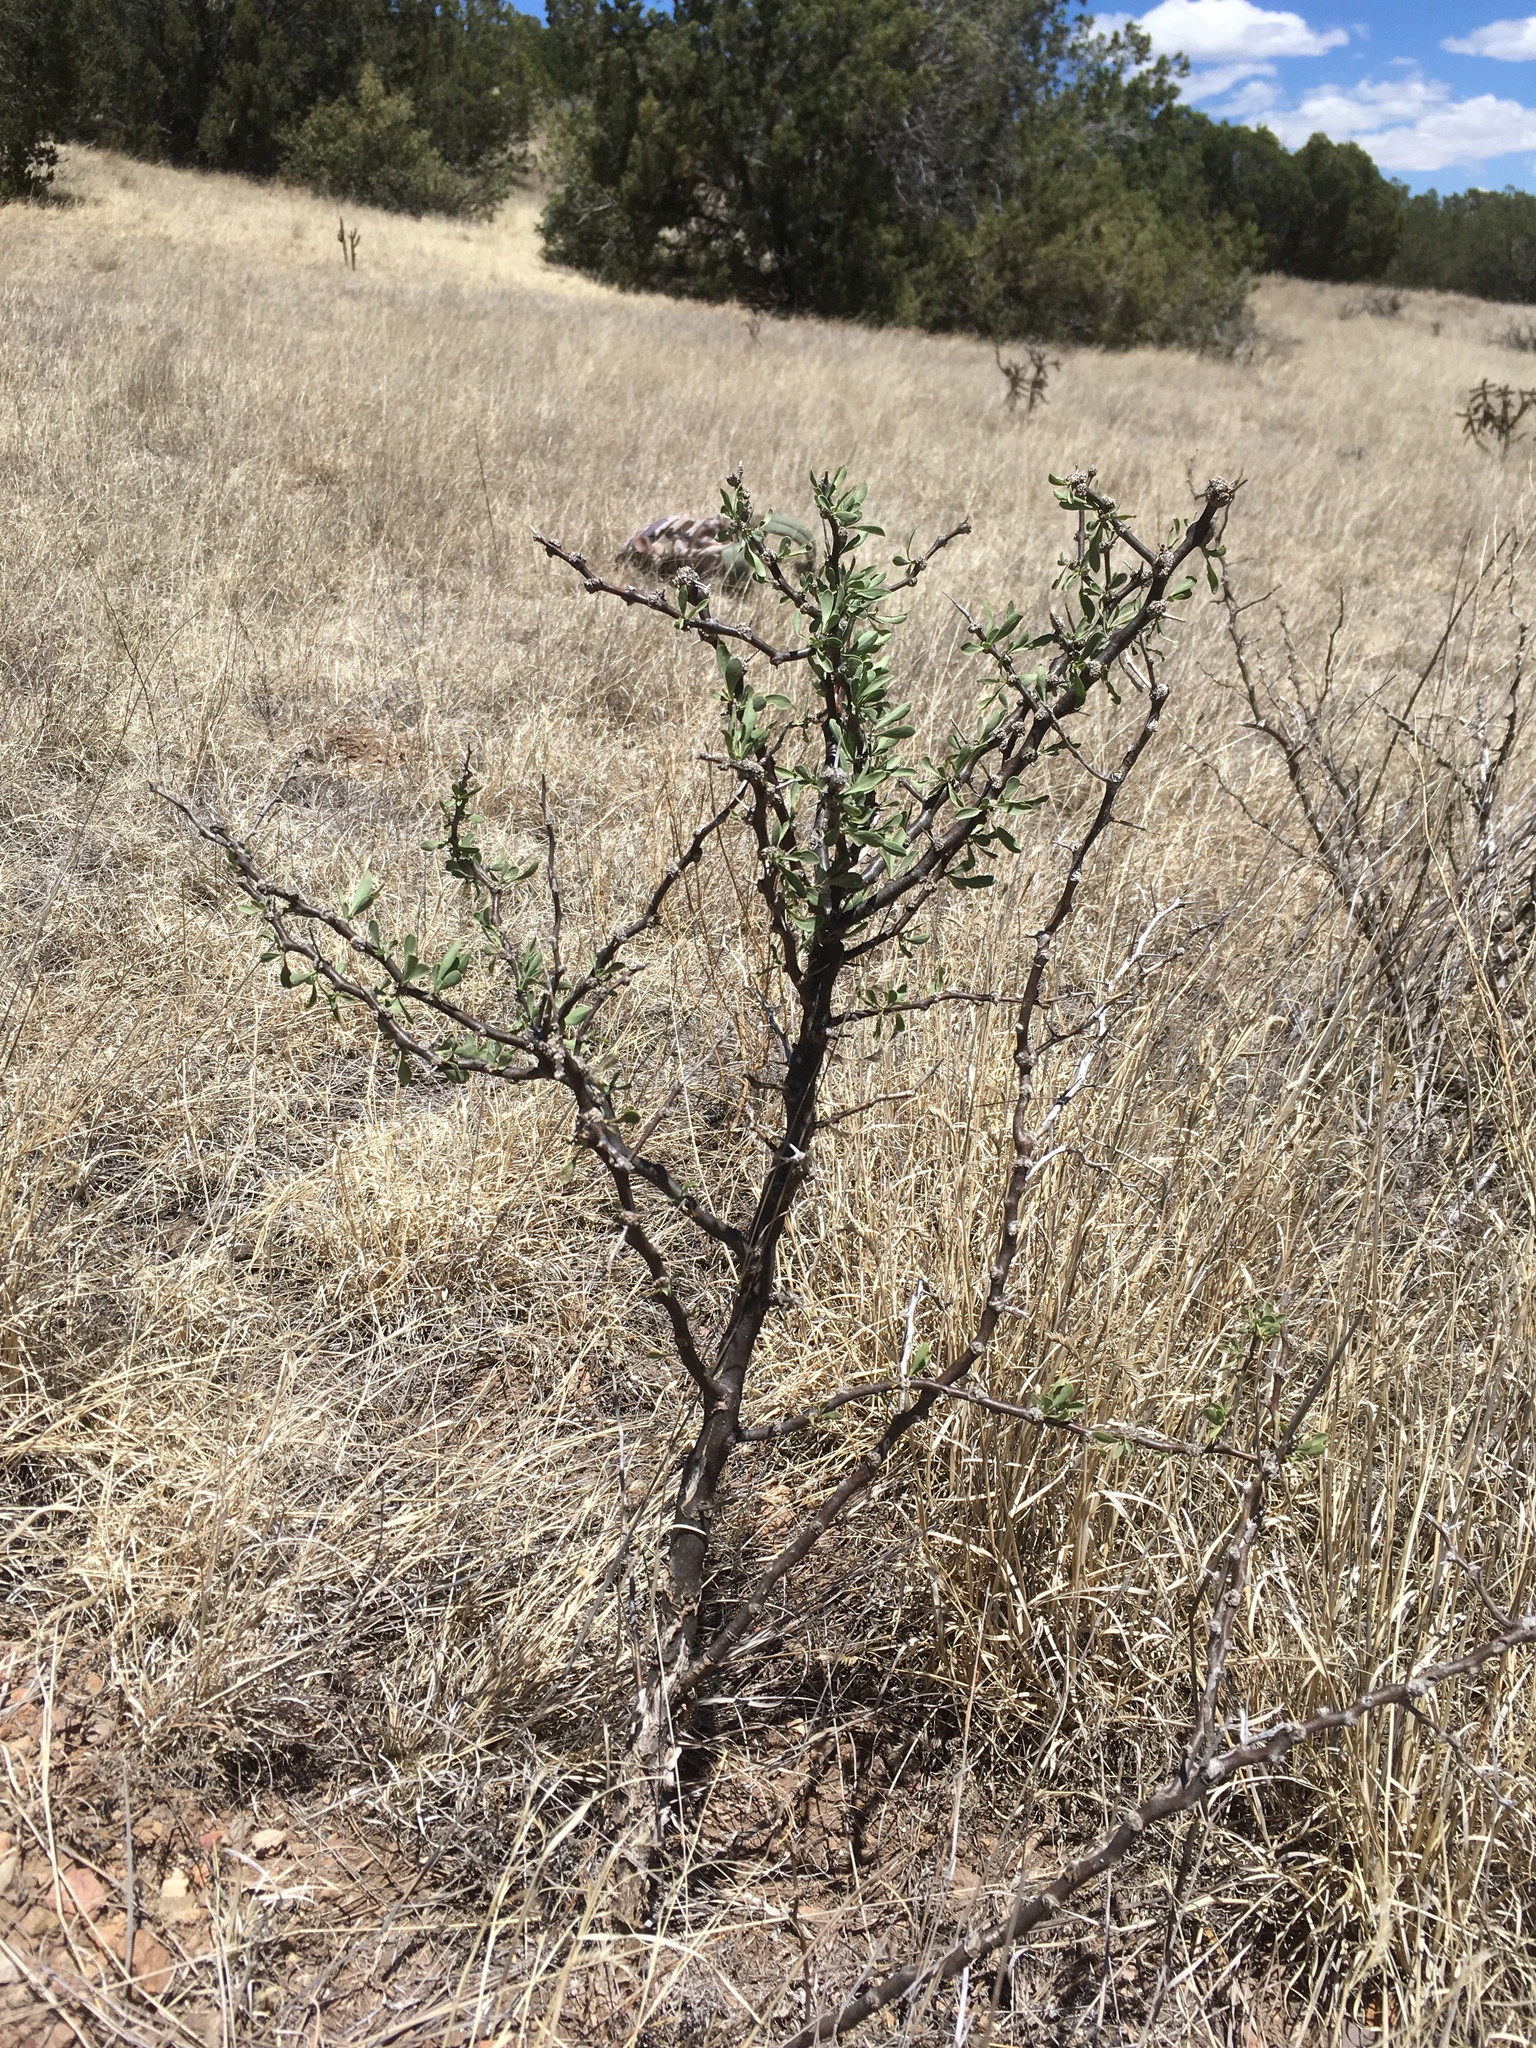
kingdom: Plantae
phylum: Tracheophyta
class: Magnoliopsida
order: Solanales
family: Solanaceae
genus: Lycium
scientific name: Lycium pallidum
